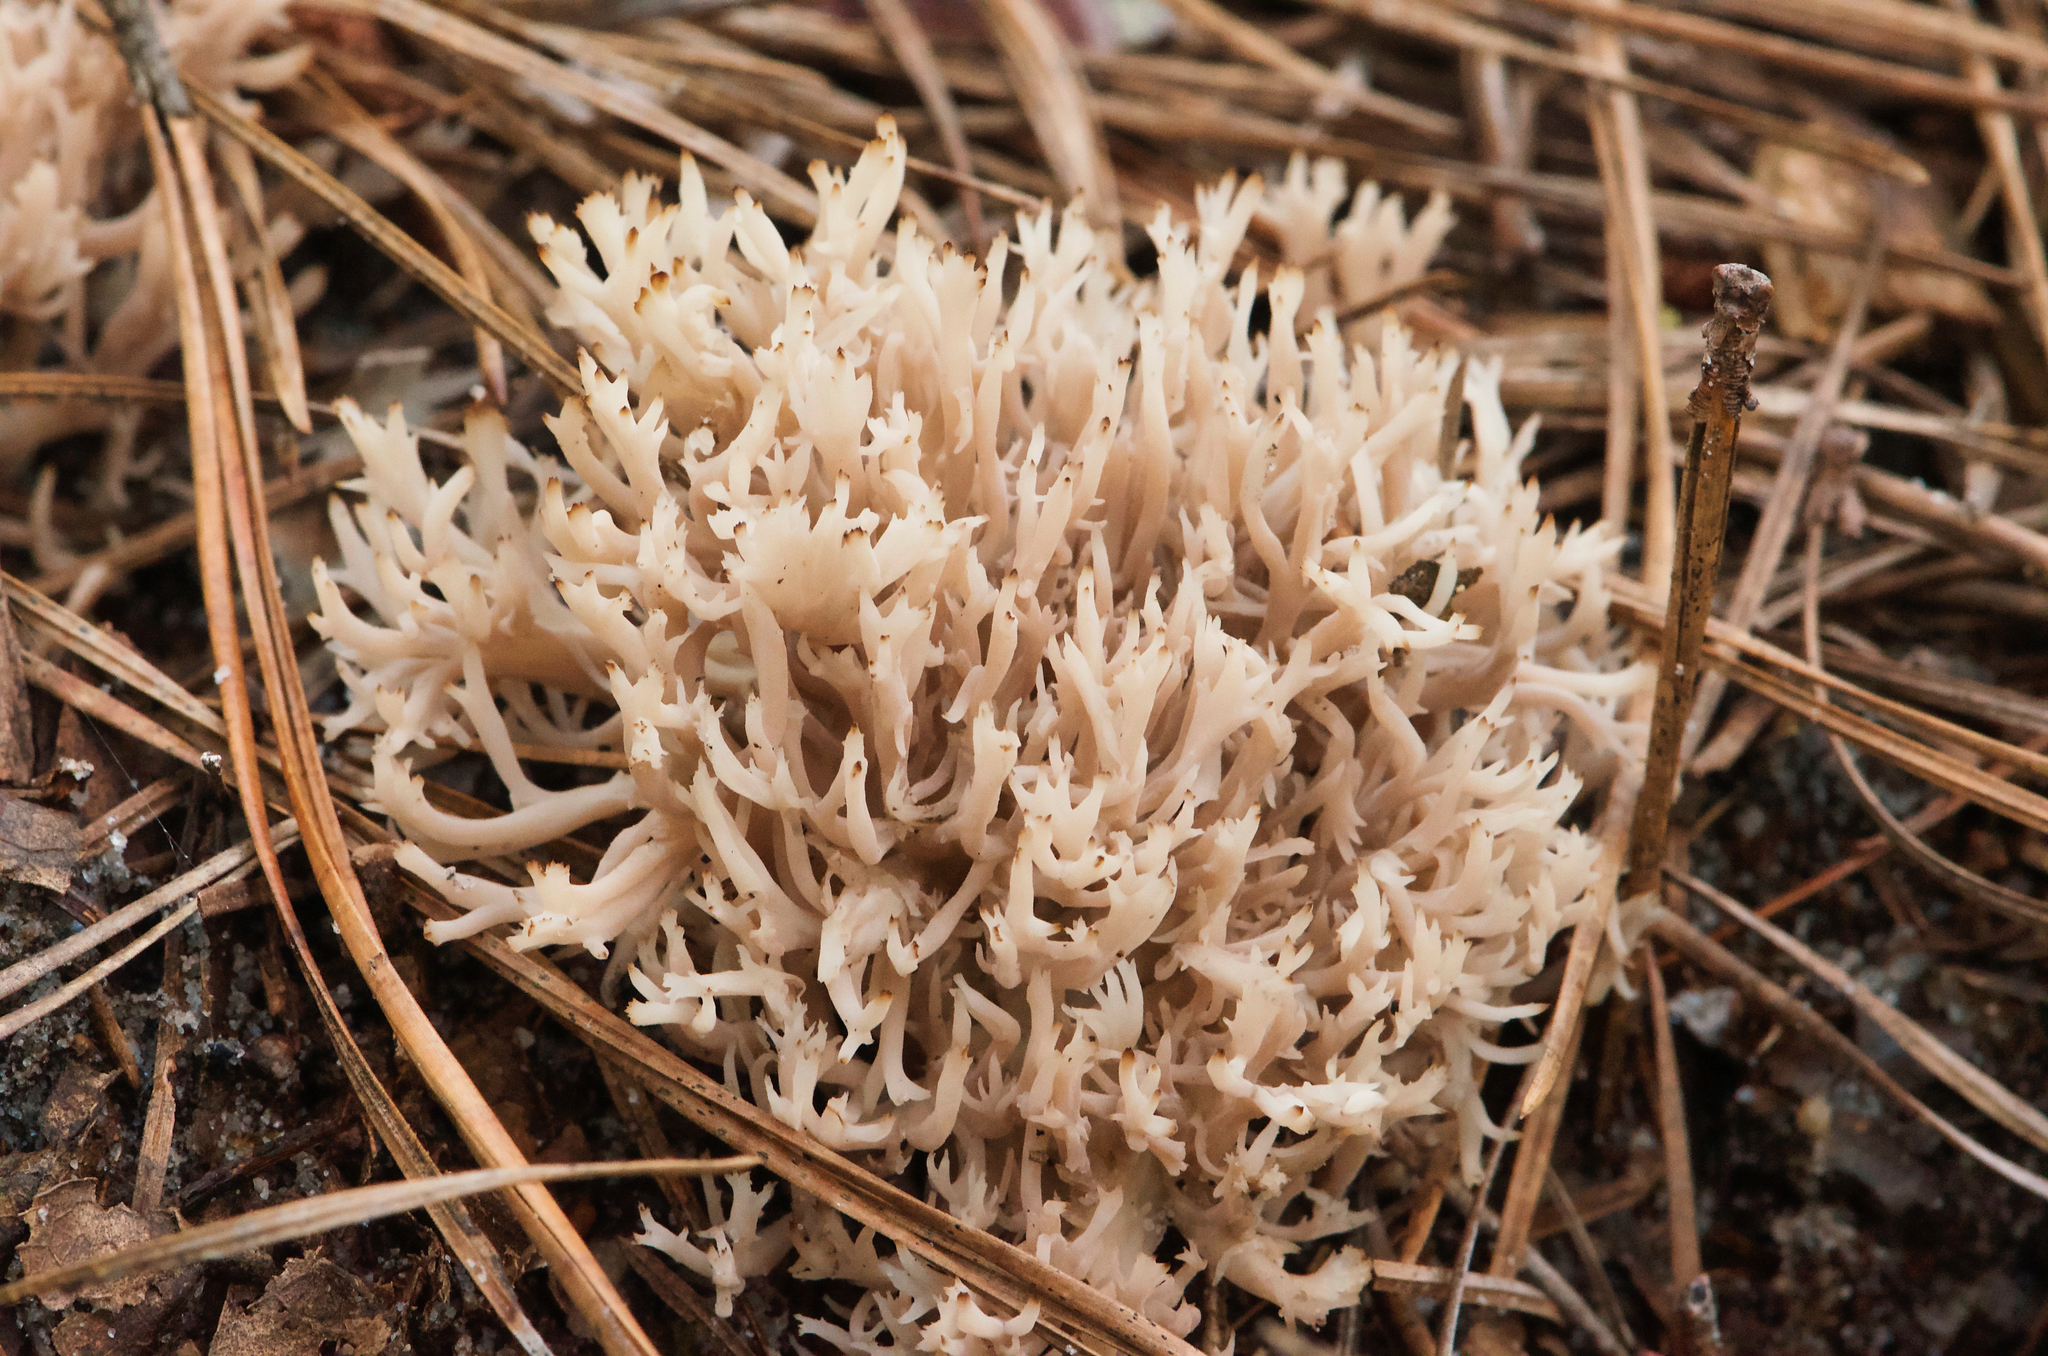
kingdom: Fungi
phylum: Basidiomycota
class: Agaricomycetes
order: Cantharellales
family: Hydnaceae
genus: Clavulina
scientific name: Clavulina coralloides
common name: Crested coral
